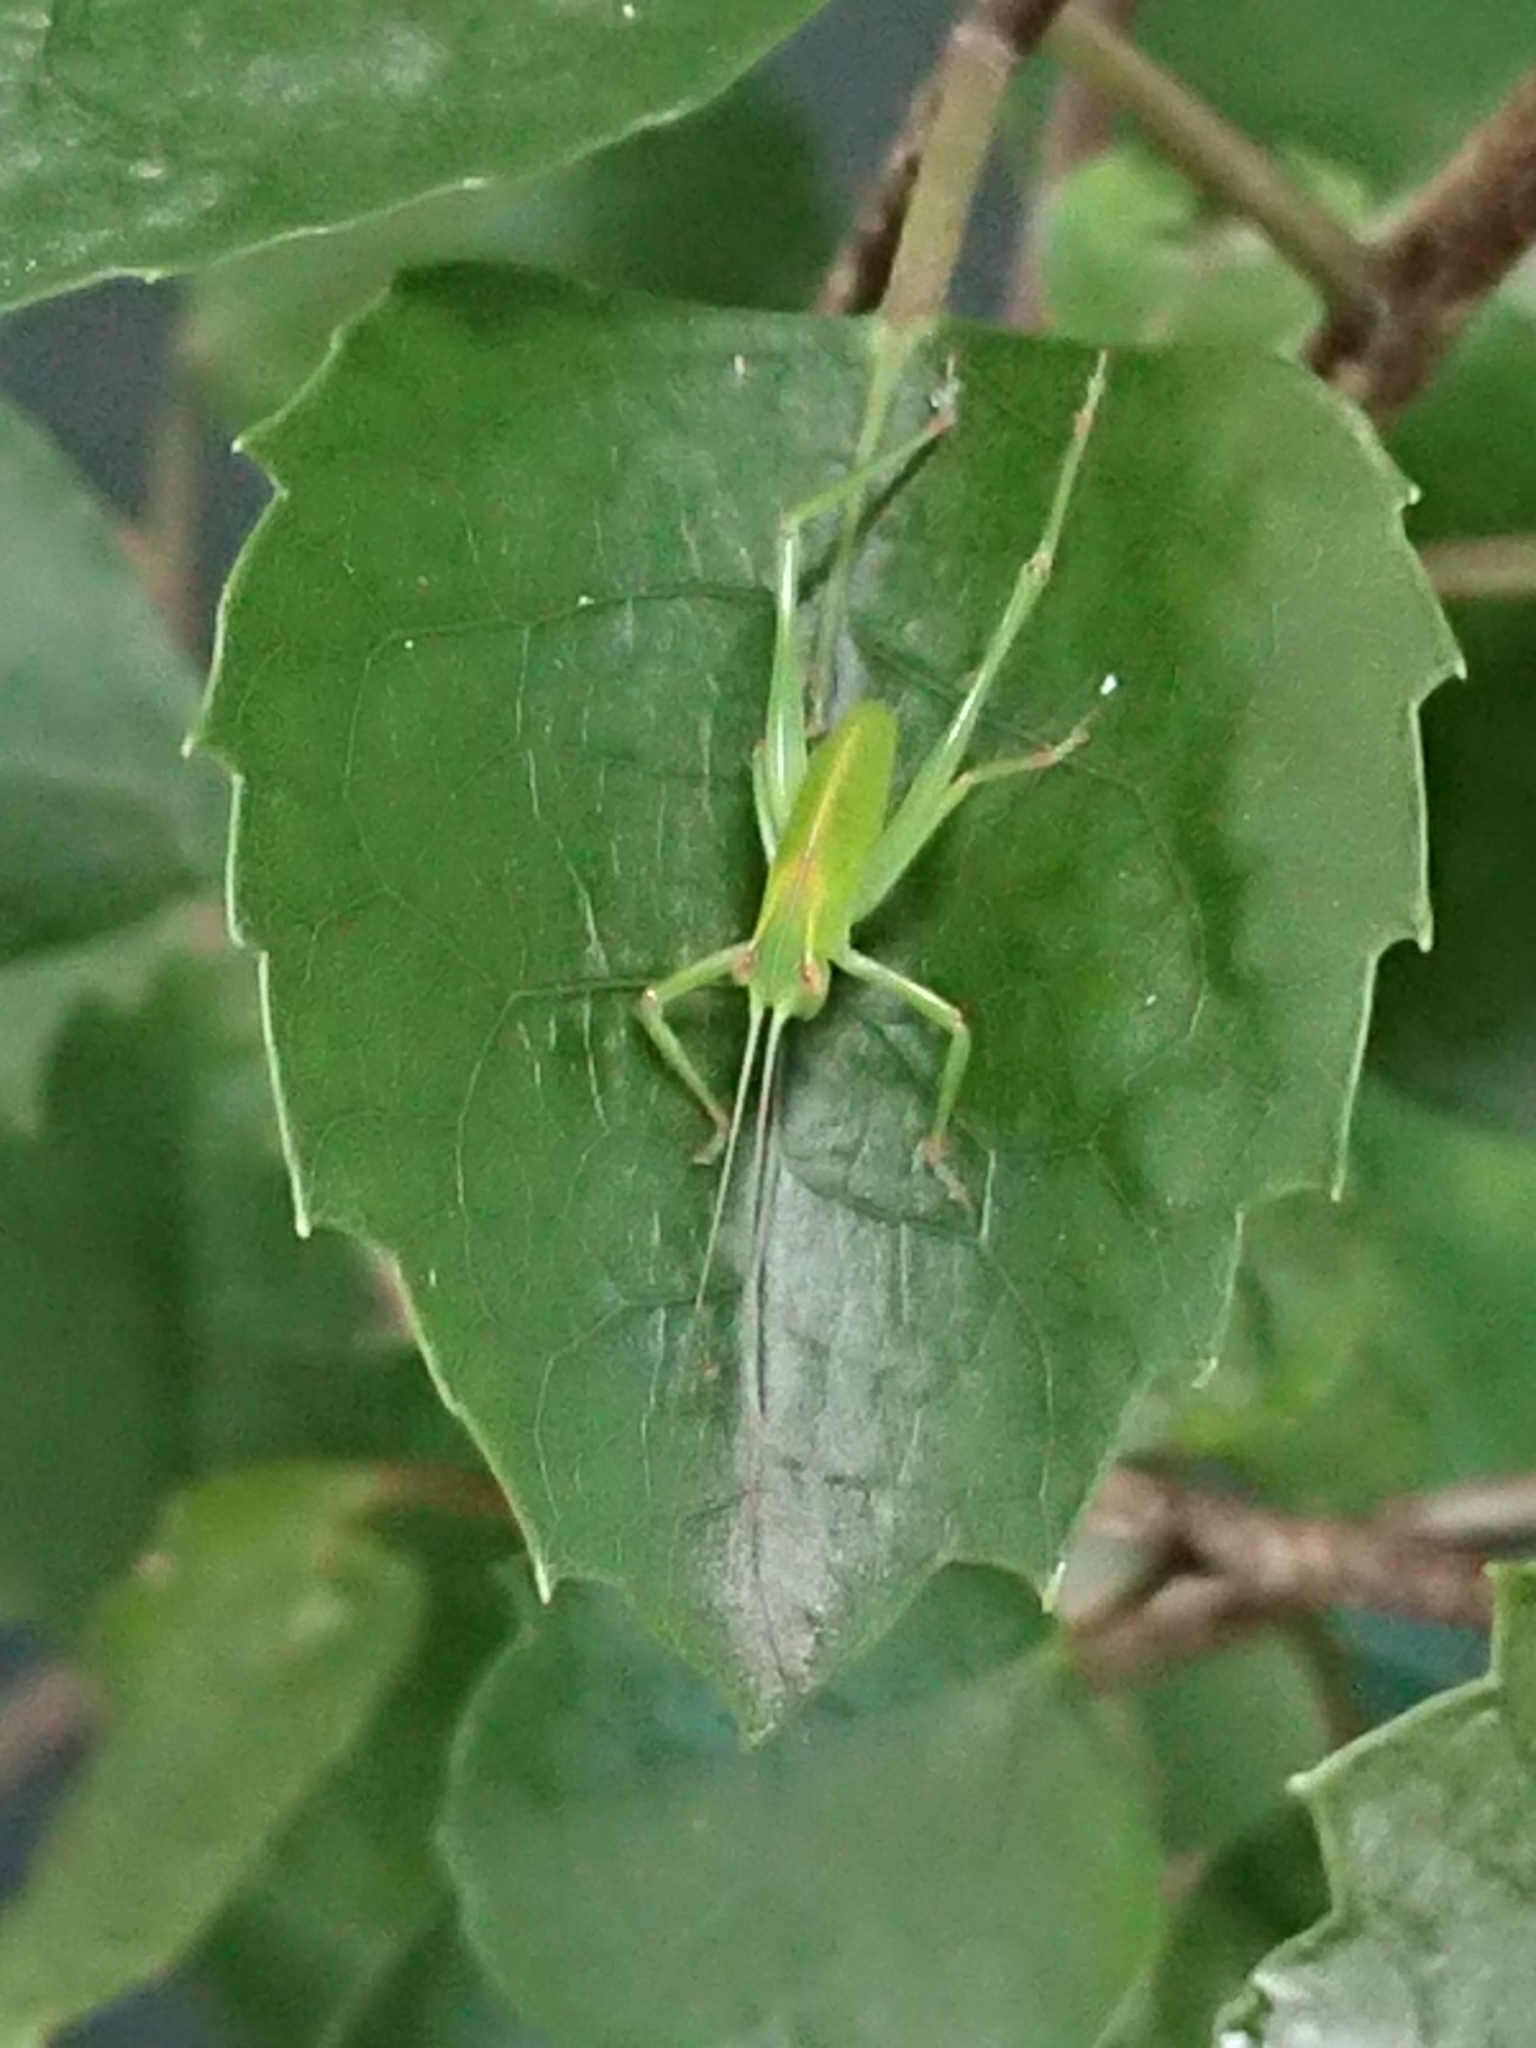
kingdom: Animalia
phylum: Arthropoda
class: Insecta
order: Orthoptera
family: Tettigoniidae
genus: Caedicia
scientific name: Caedicia simplex
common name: Common garden katydid
